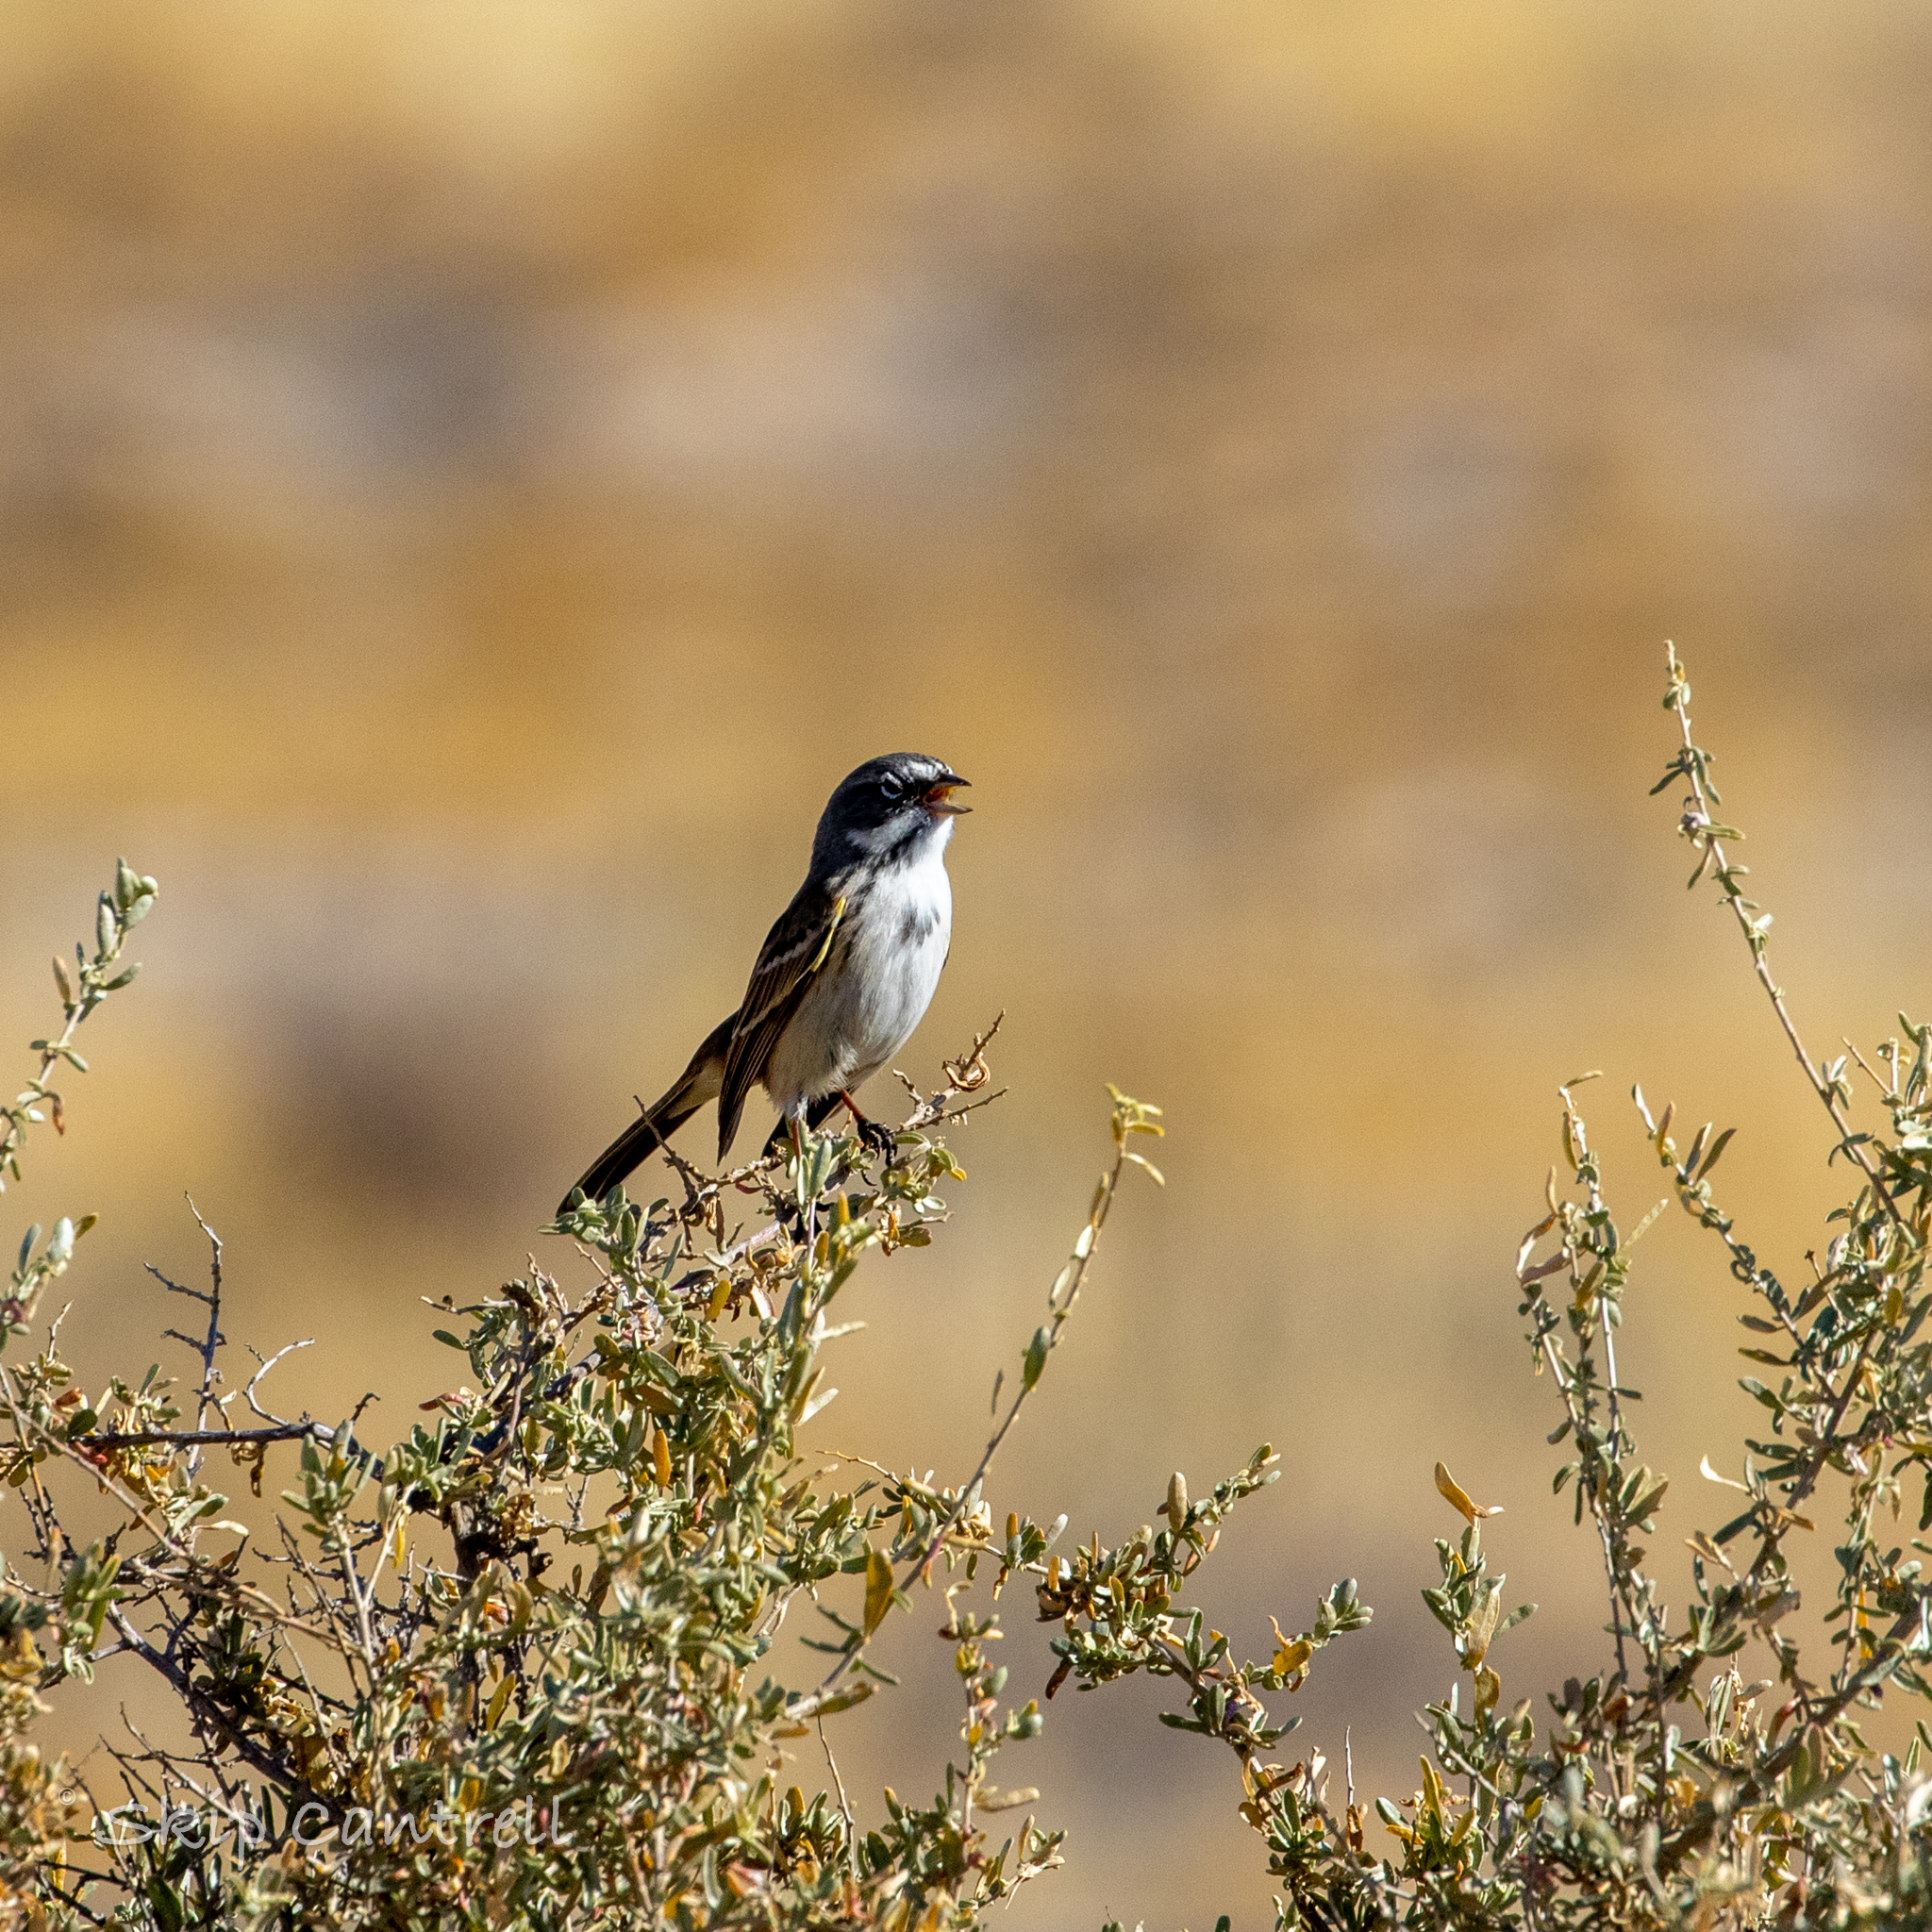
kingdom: Animalia
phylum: Chordata
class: Aves
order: Passeriformes
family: Passerellidae
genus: Artemisiospiza
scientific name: Artemisiospiza nevadensis
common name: Sagebrush sparrow
